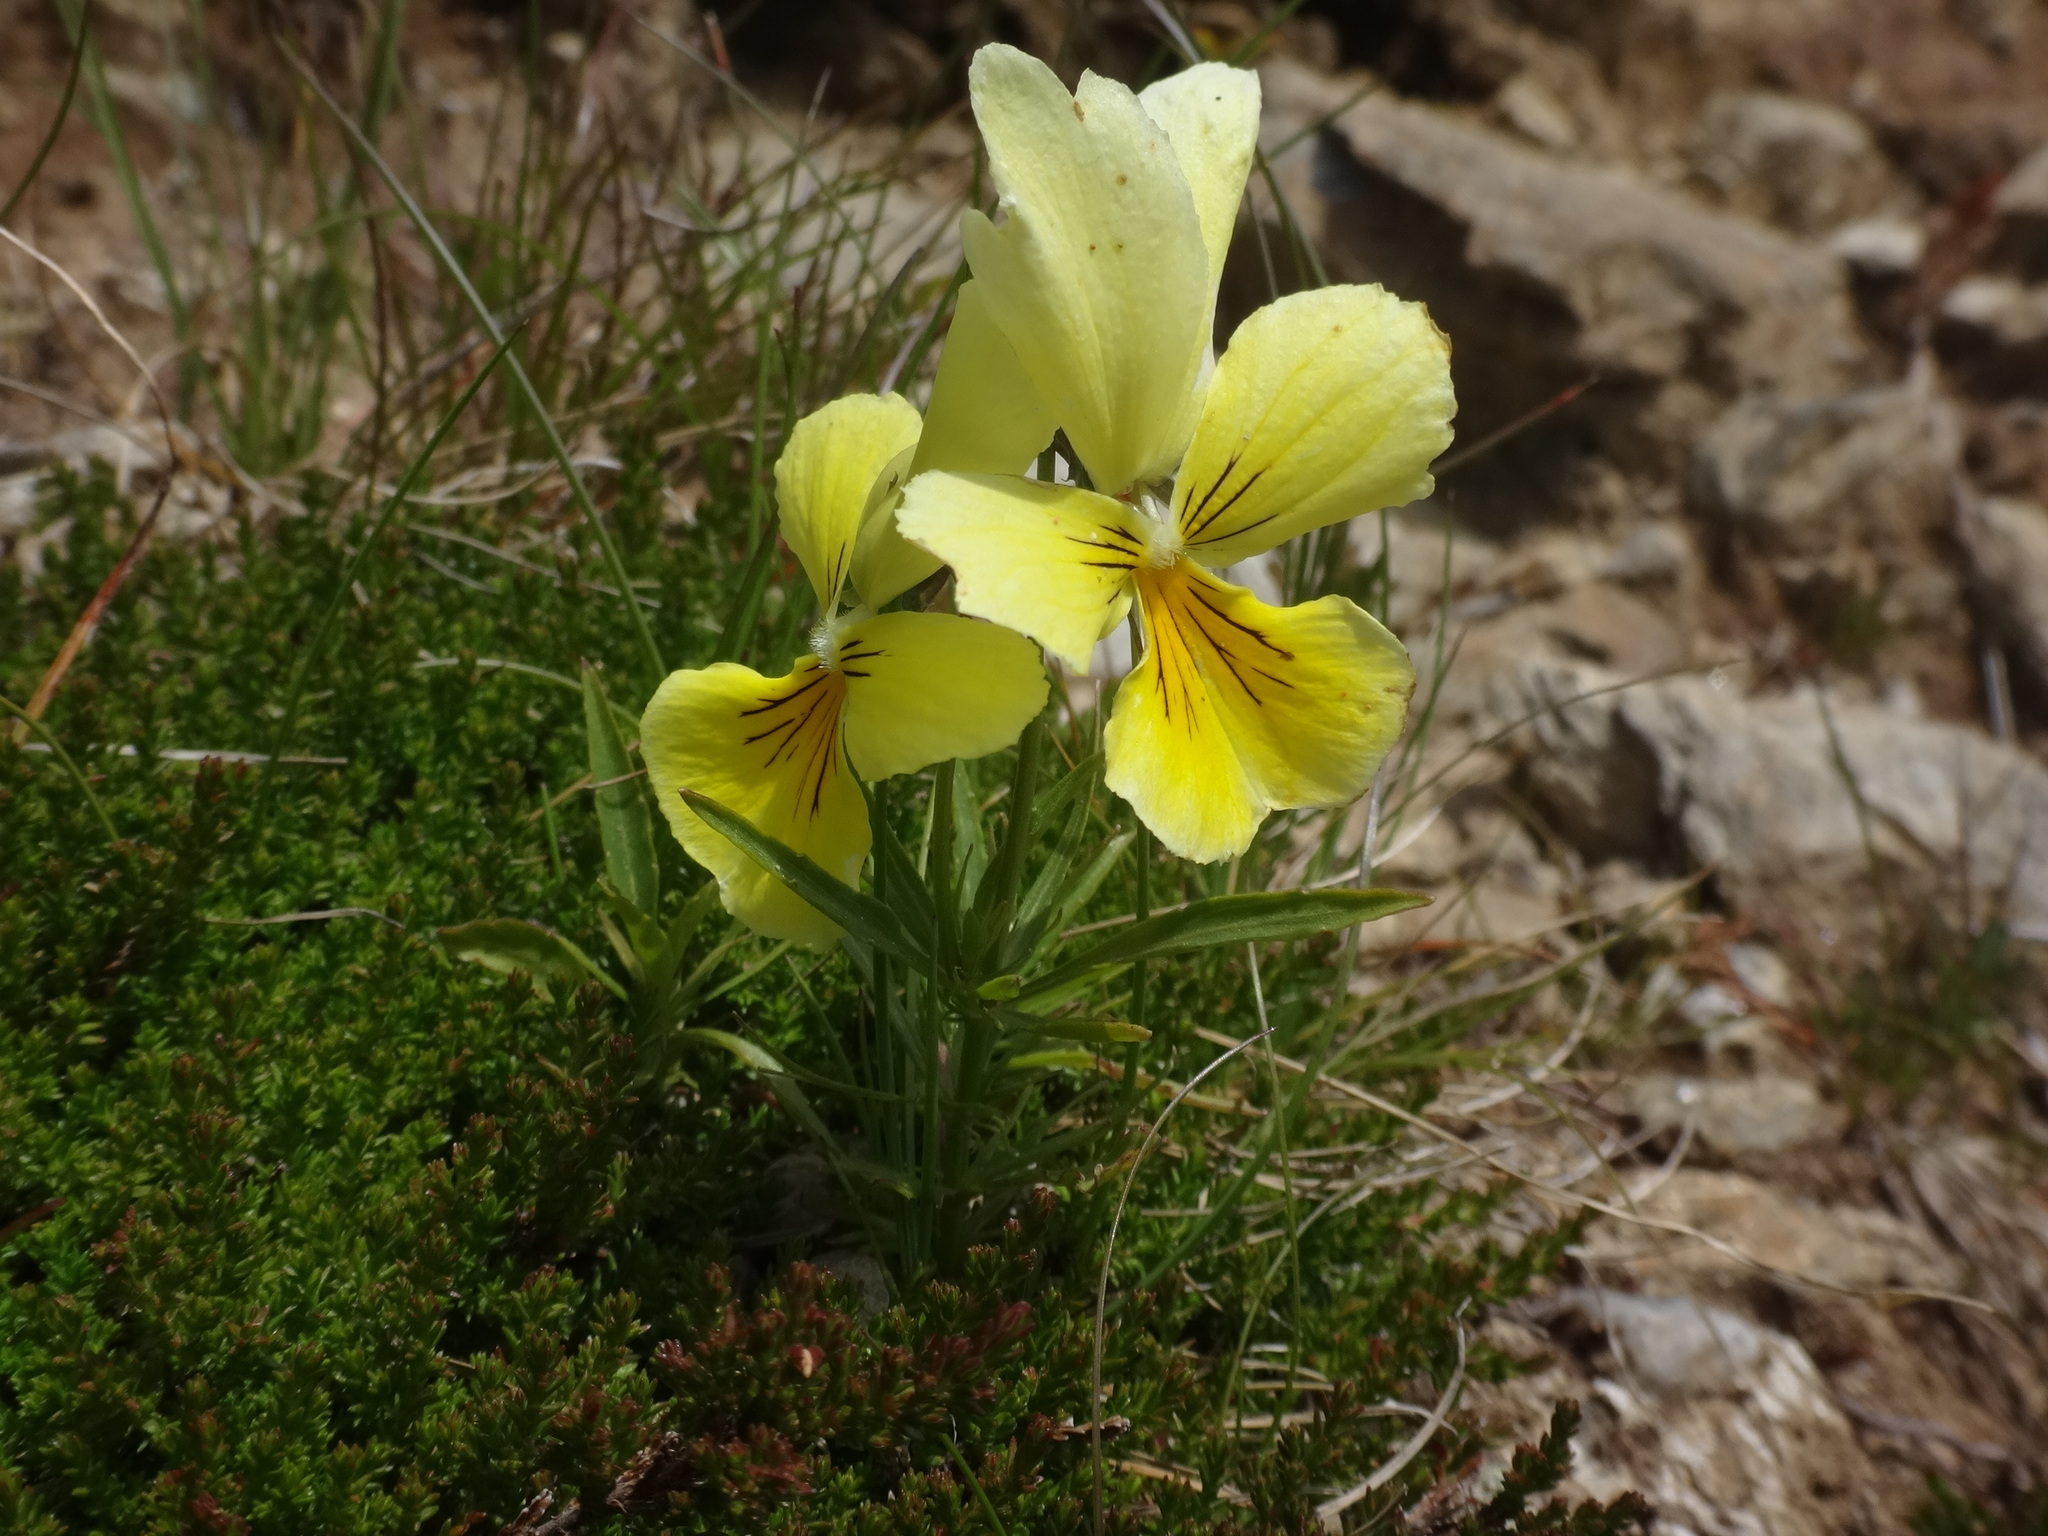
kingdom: Plantae
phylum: Tracheophyta
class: Magnoliopsida
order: Malpighiales
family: Violaceae
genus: Viola
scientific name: Viola lutea
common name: Mountain pansy
